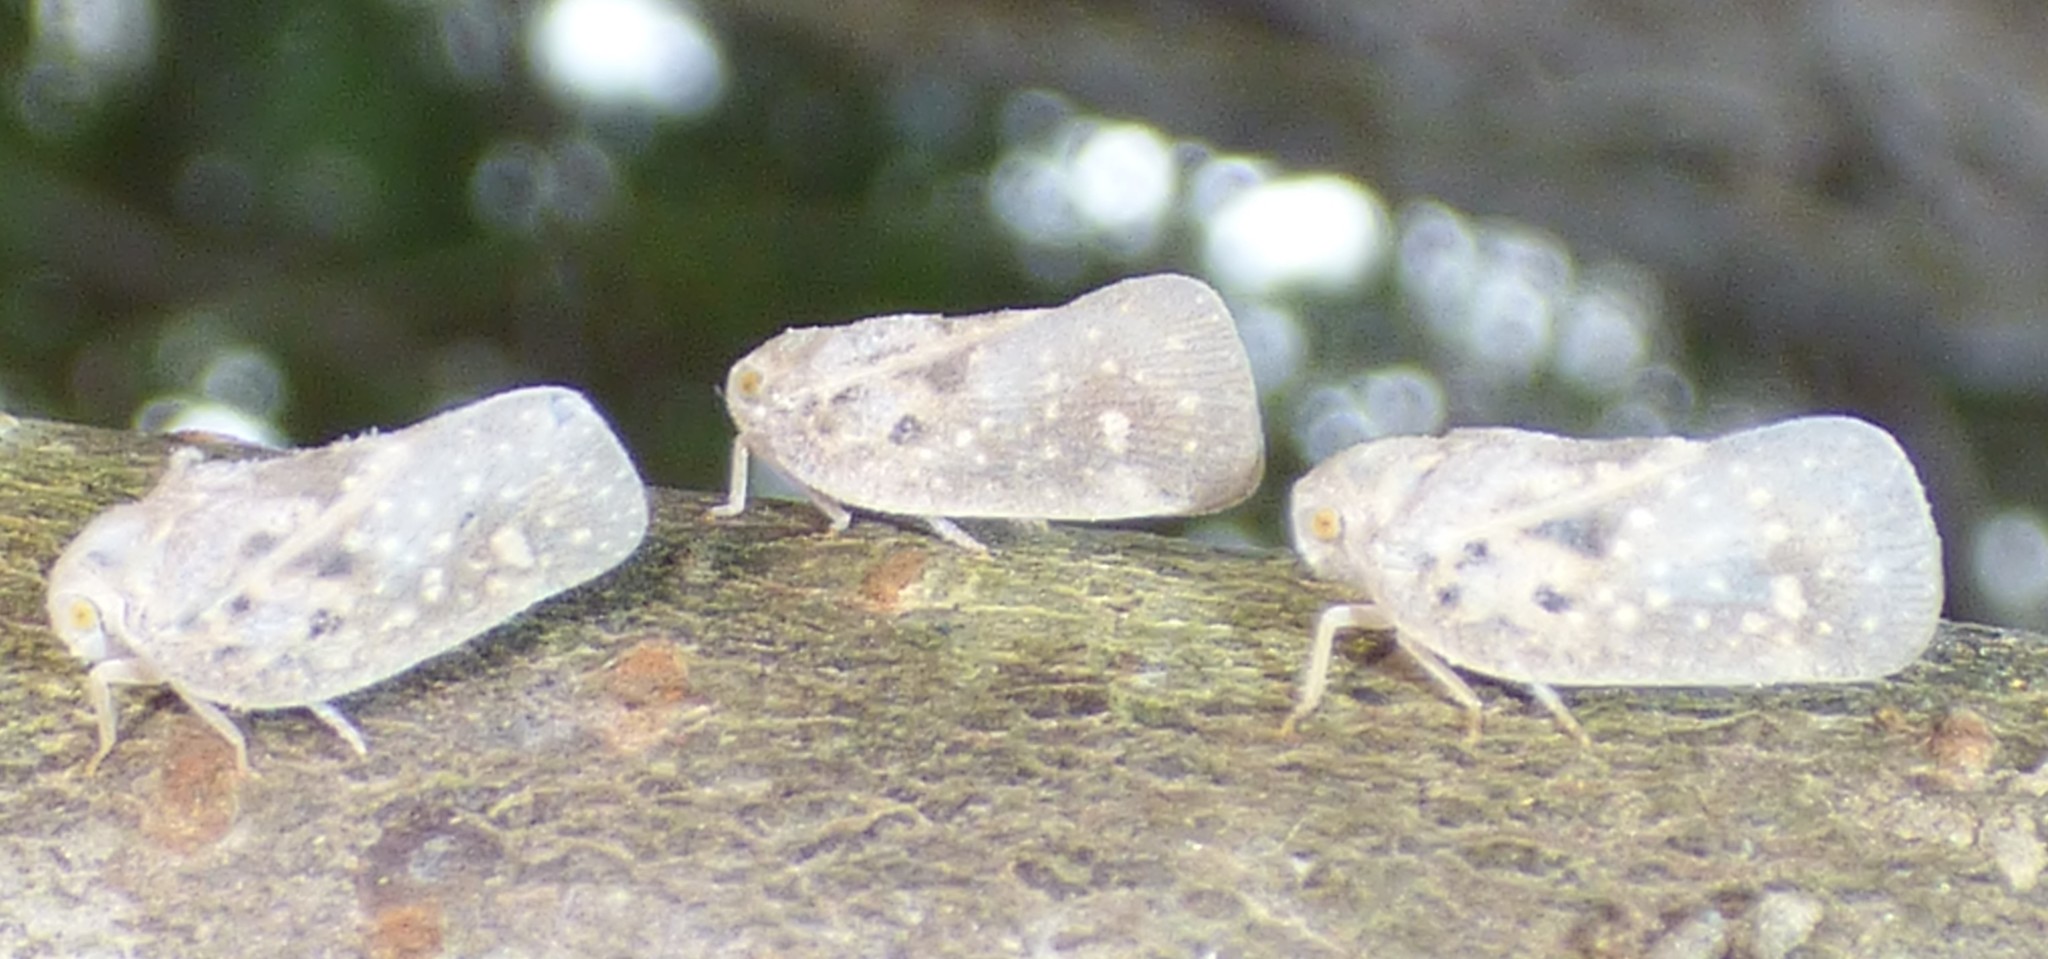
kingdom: Animalia
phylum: Arthropoda
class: Insecta
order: Hemiptera
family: Flatidae
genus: Metcalfa
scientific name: Metcalfa pruinosa
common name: Citrus flatid planthopper
